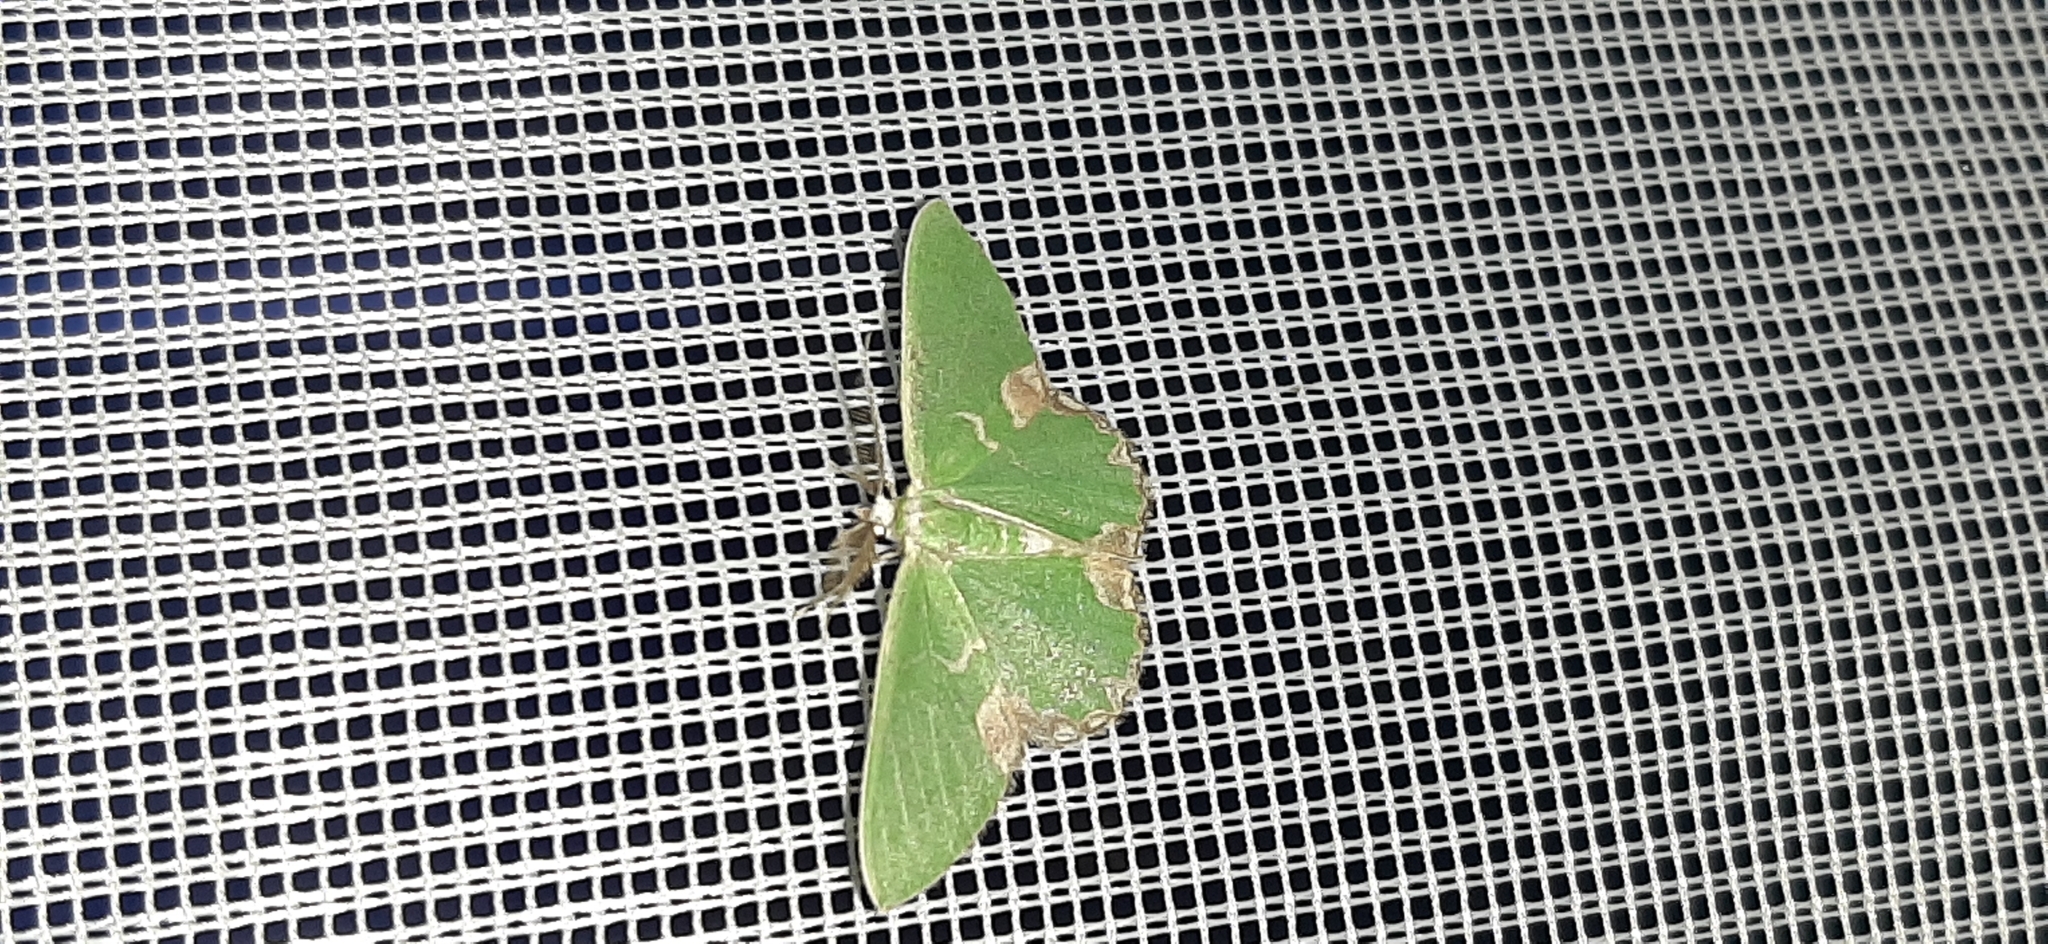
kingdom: Animalia
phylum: Arthropoda
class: Insecta
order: Lepidoptera
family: Geometridae
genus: Comibaena
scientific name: Comibaena bajularia
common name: Blotched emerald
